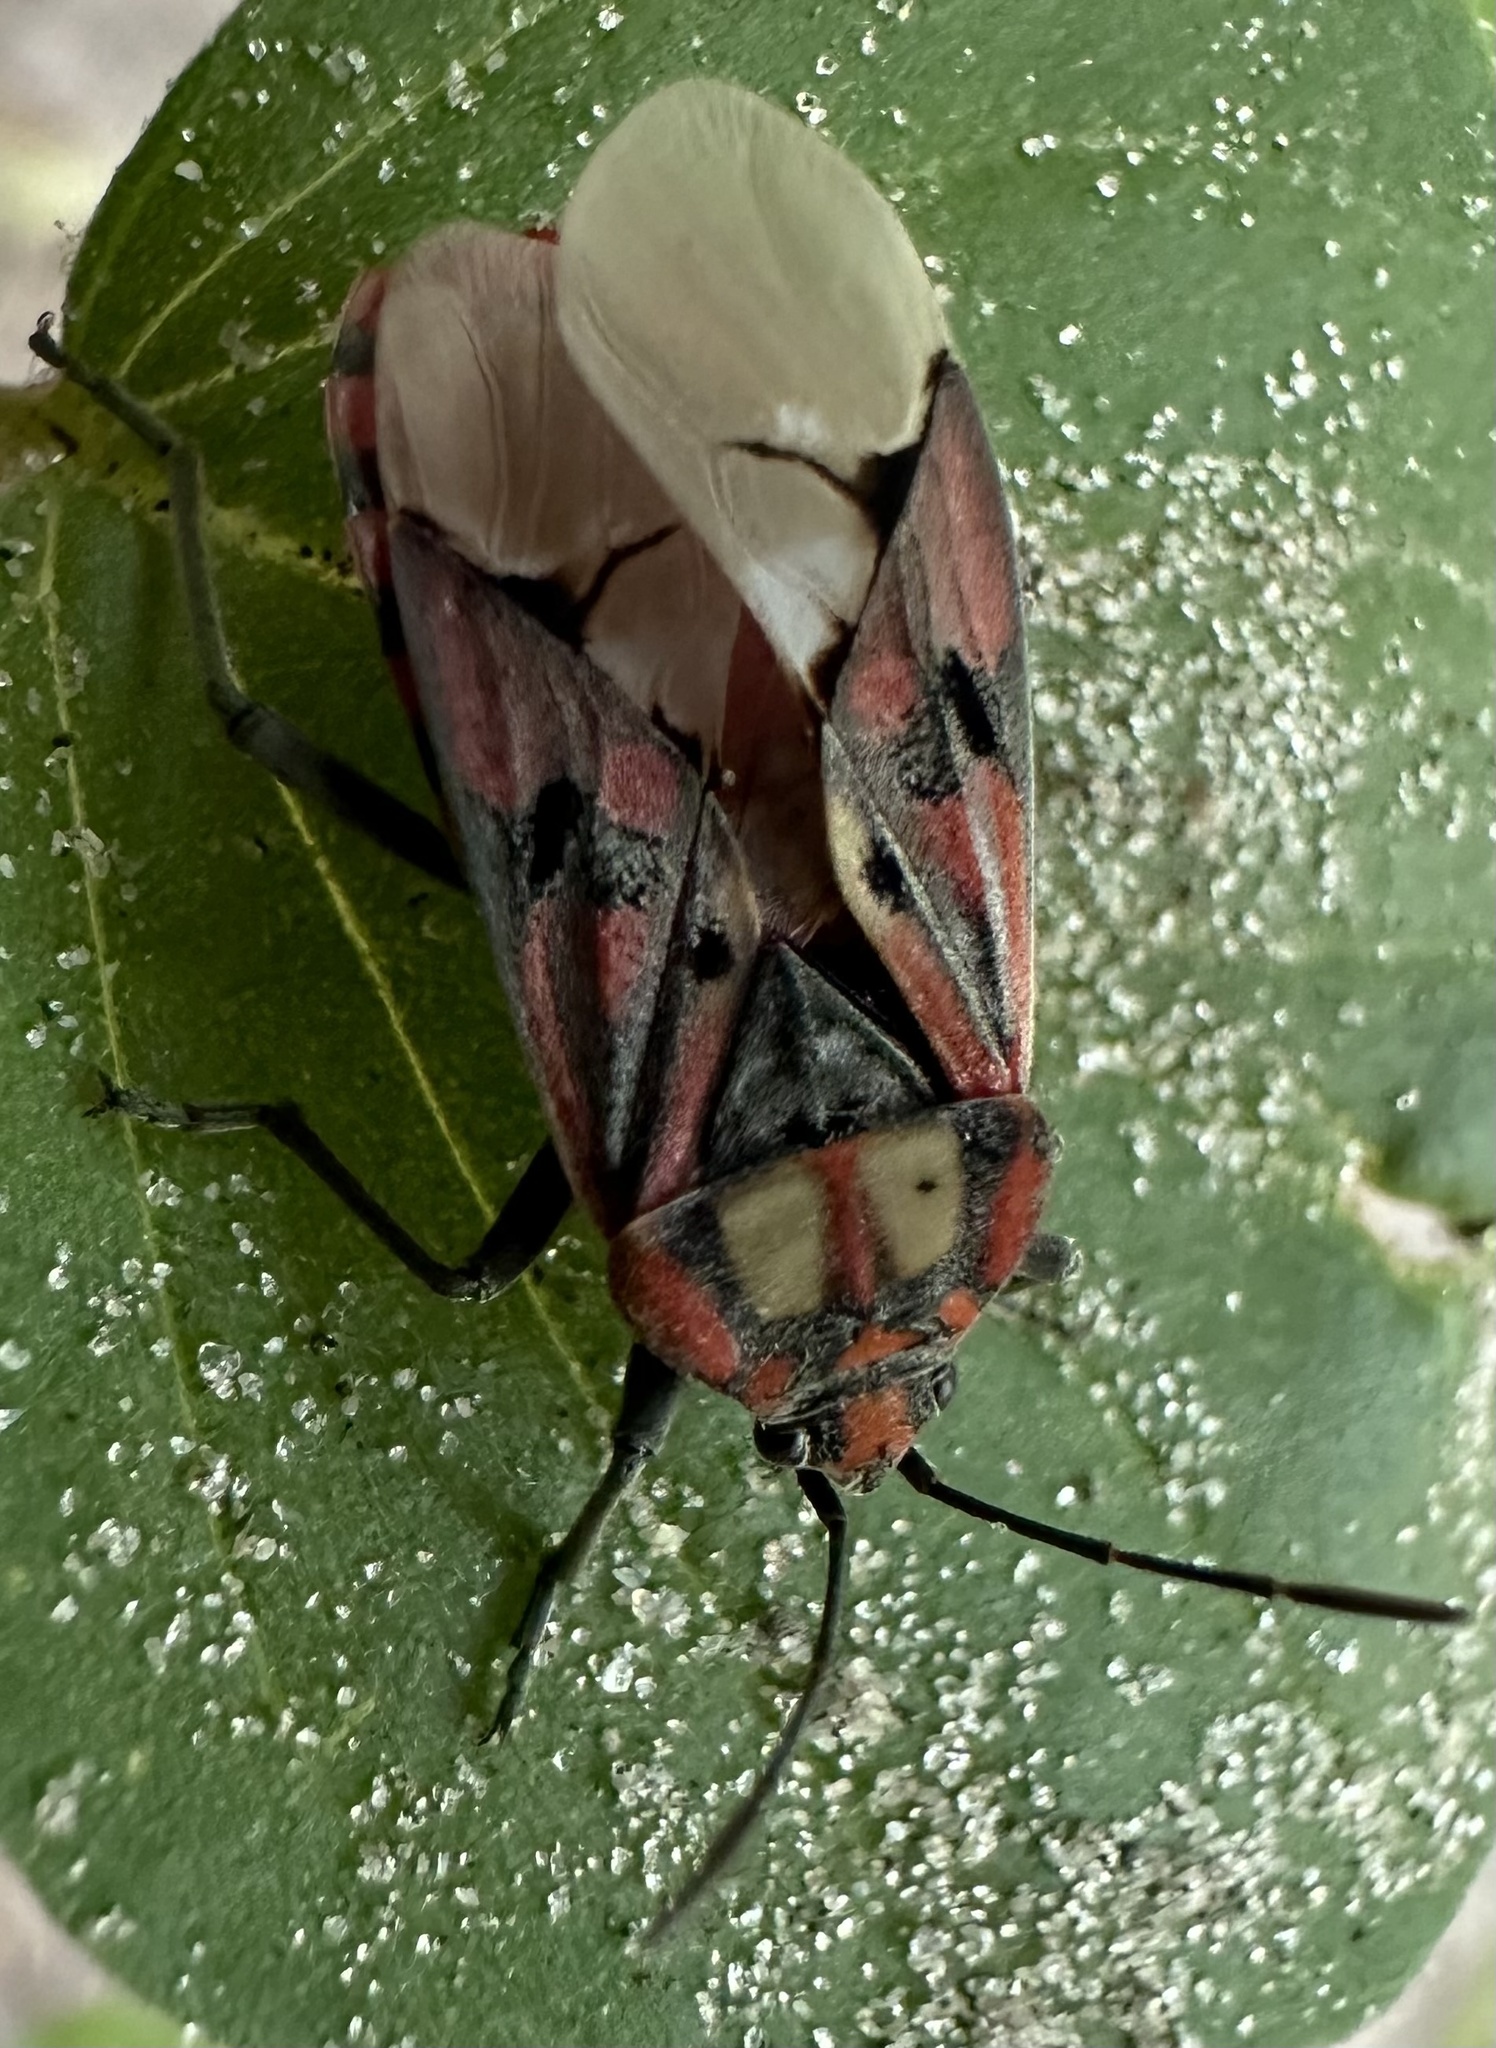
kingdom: Animalia
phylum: Arthropoda
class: Insecta
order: Hemiptera
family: Lygaeidae
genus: Spilostethus
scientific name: Spilostethus pandurus
